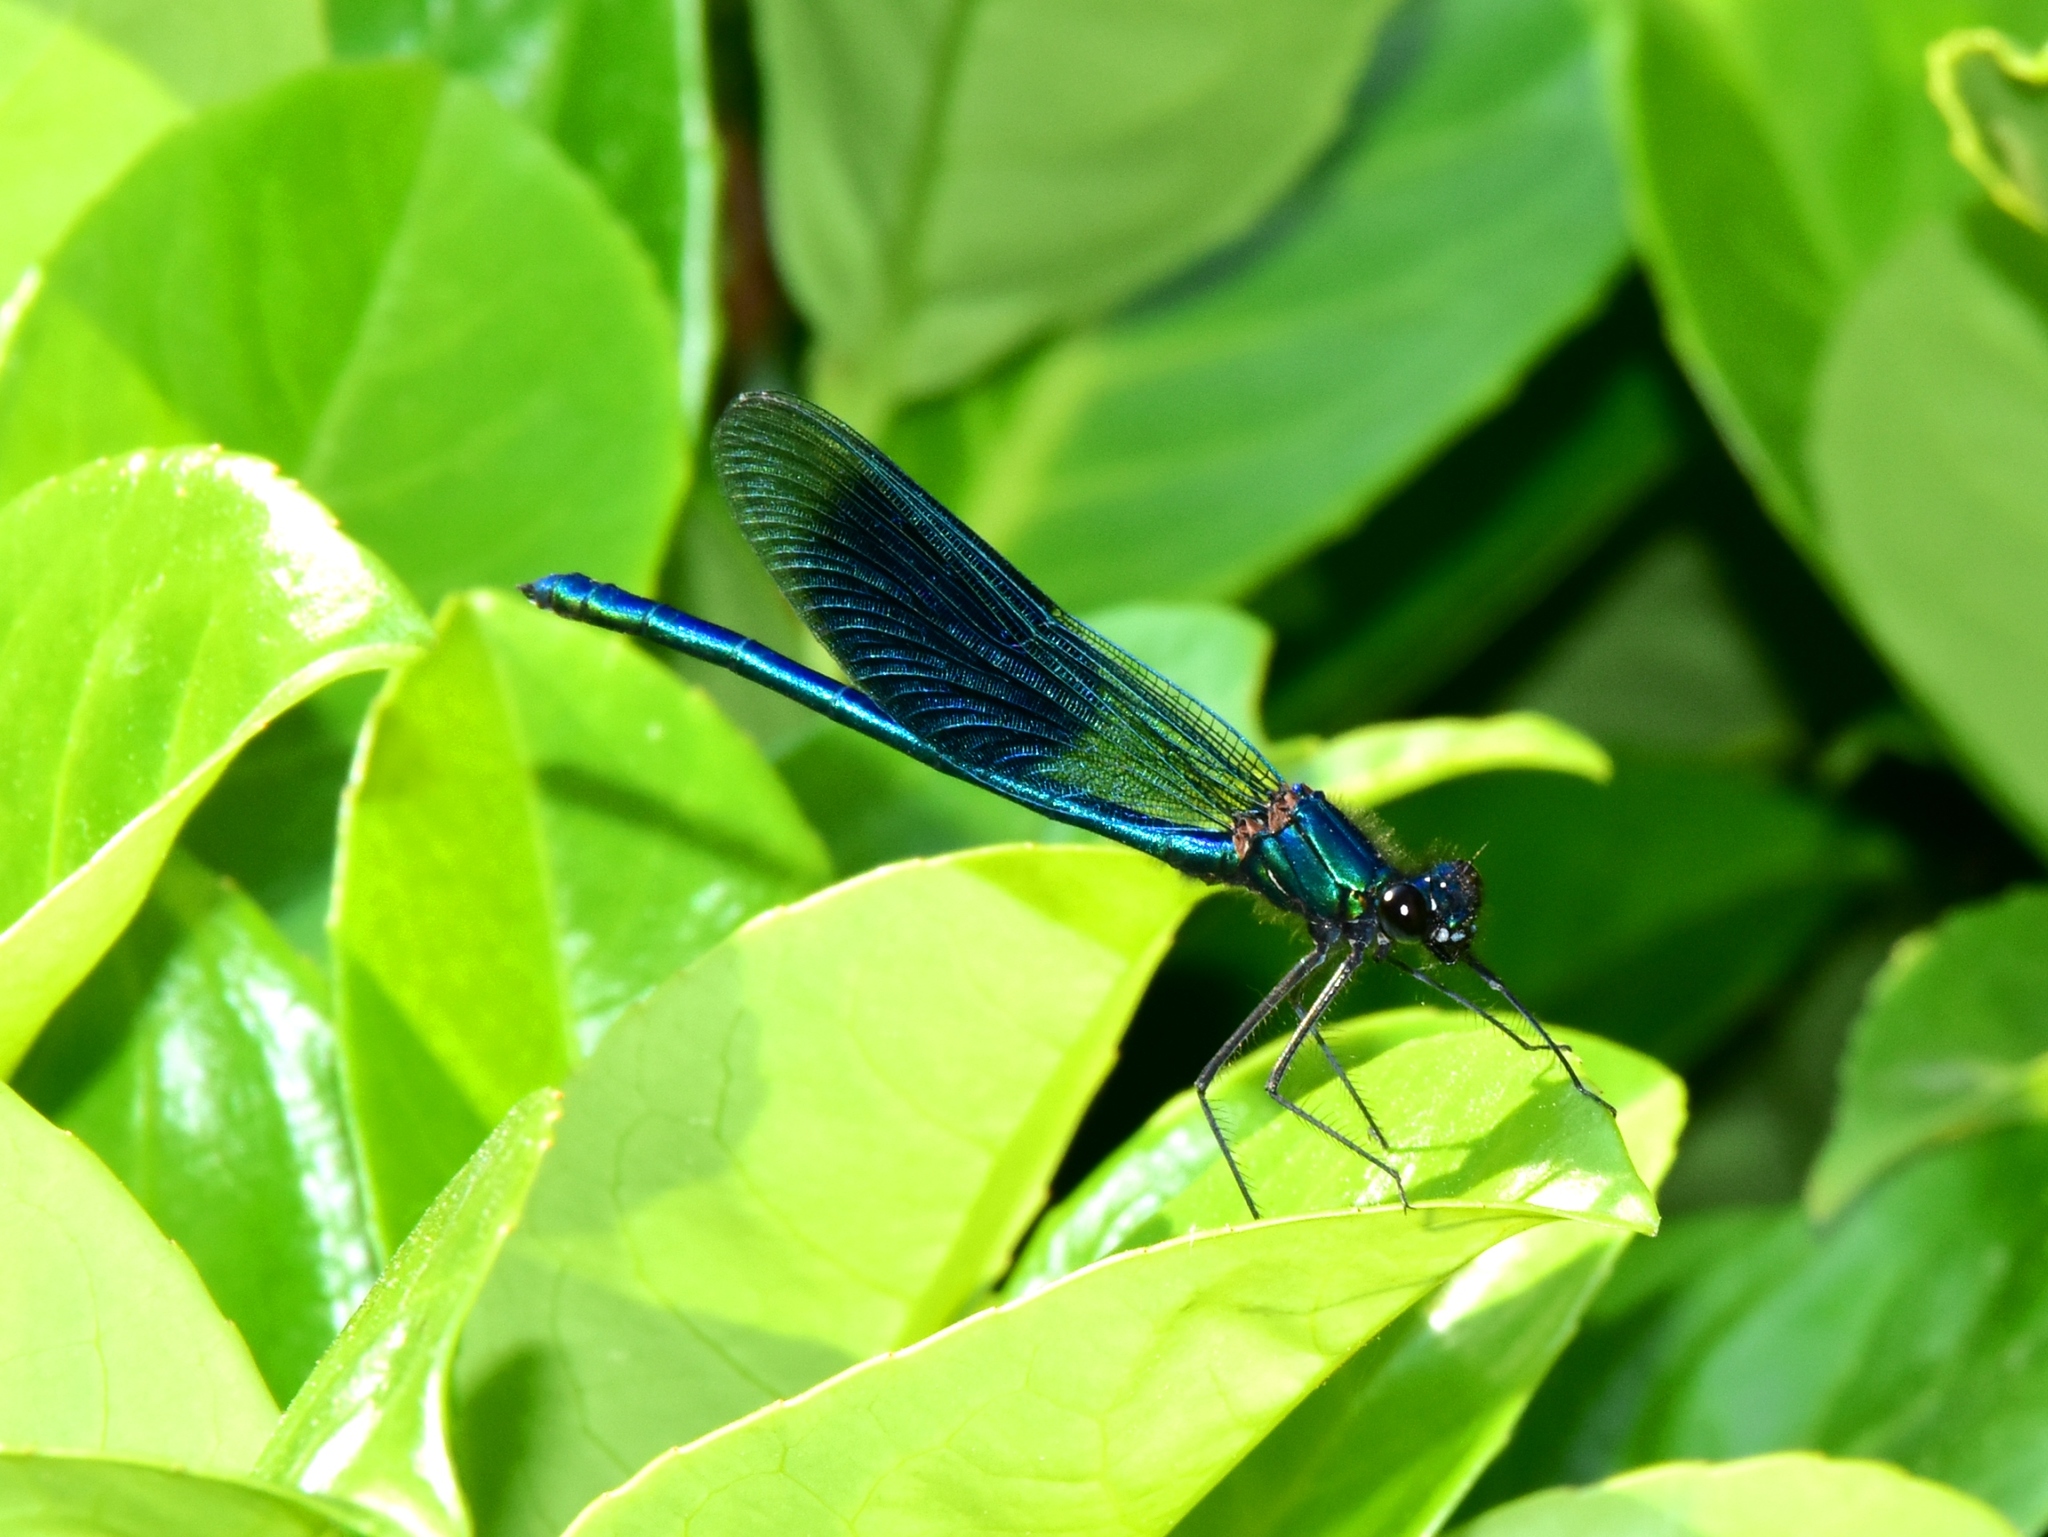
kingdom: Animalia
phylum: Arthropoda
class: Insecta
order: Odonata
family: Calopterygidae
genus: Calopteryx
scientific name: Calopteryx splendens
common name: Banded demoiselle
